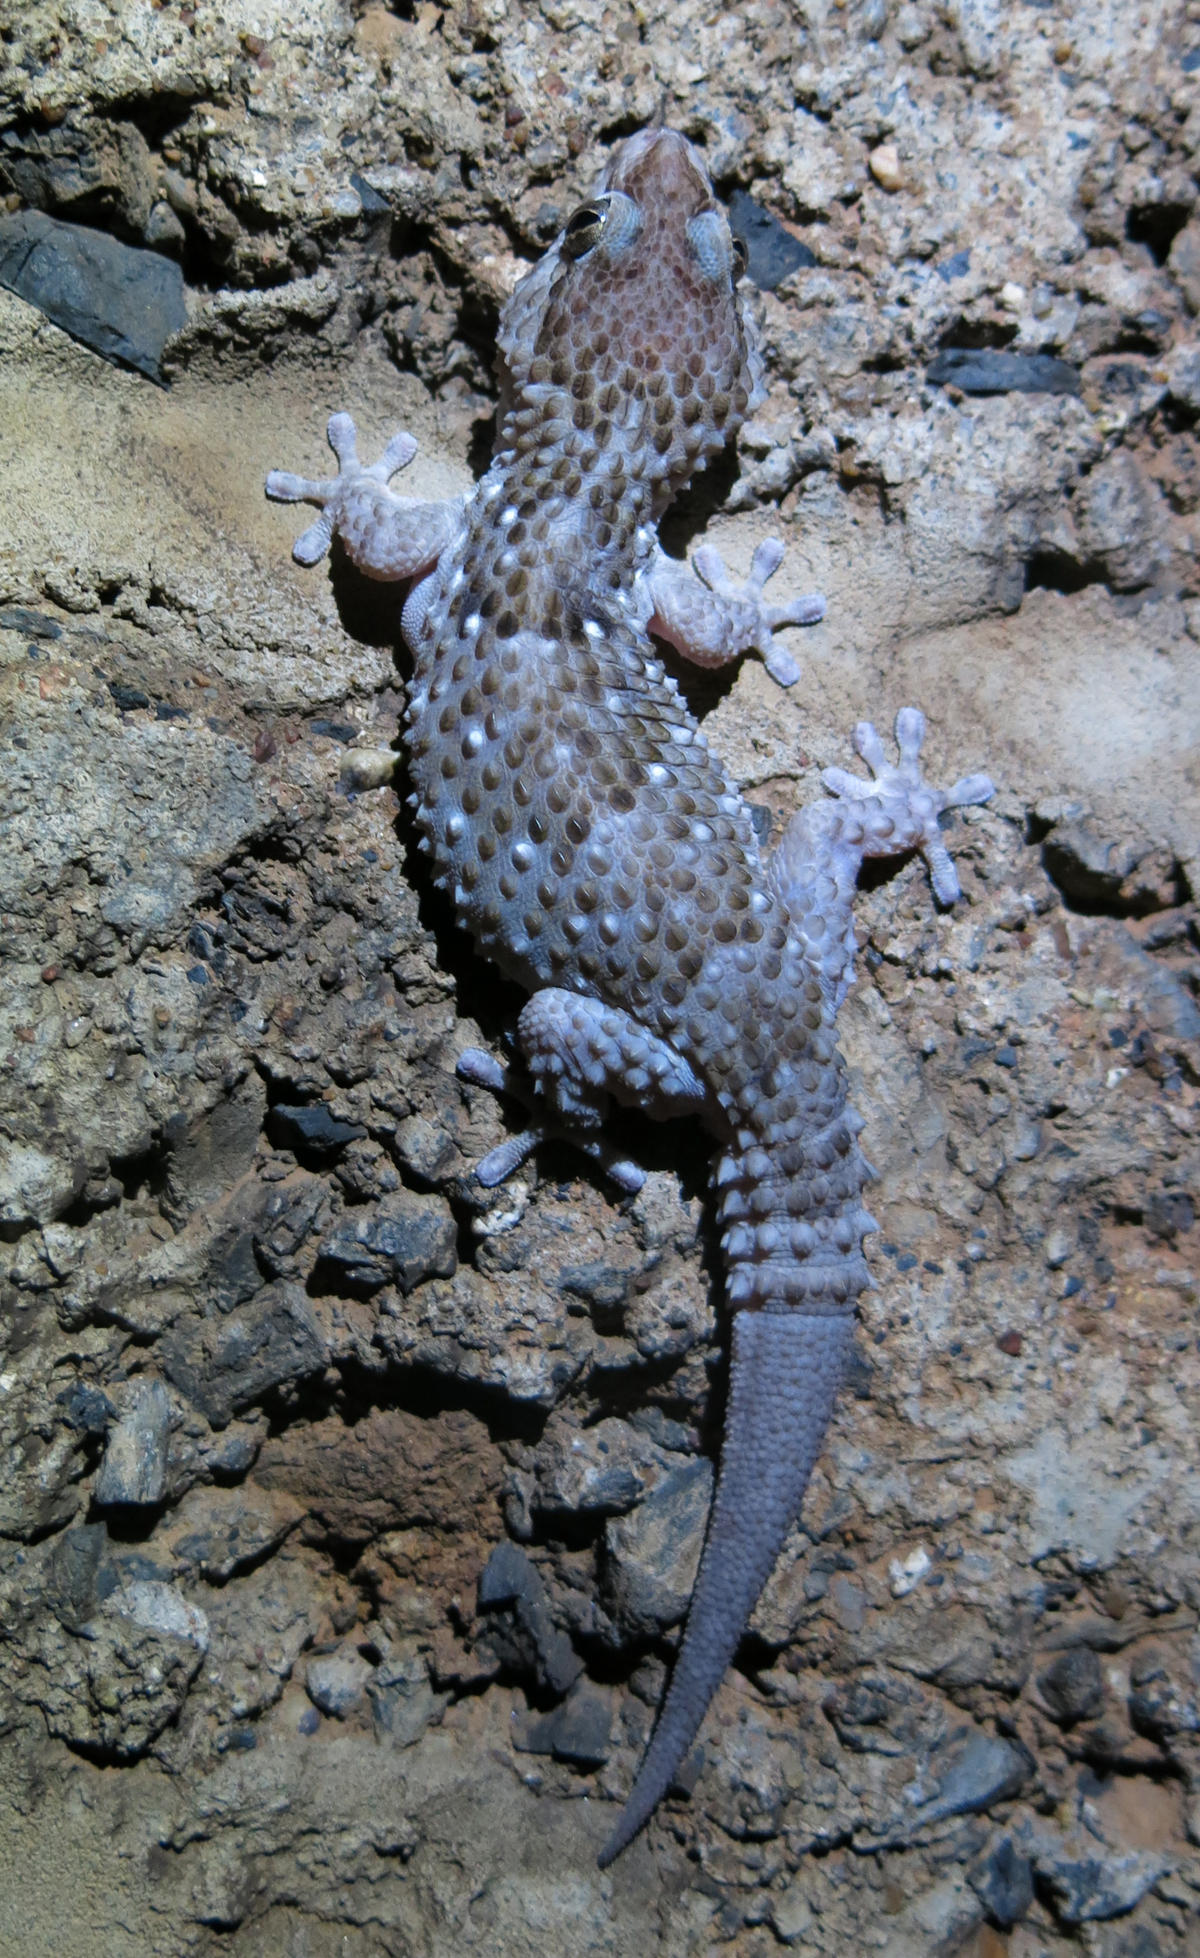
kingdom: Animalia
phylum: Chordata
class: Squamata
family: Gekkonidae
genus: Chondrodactylus
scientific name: Chondrodactylus turneri
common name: Turner’s gecko
